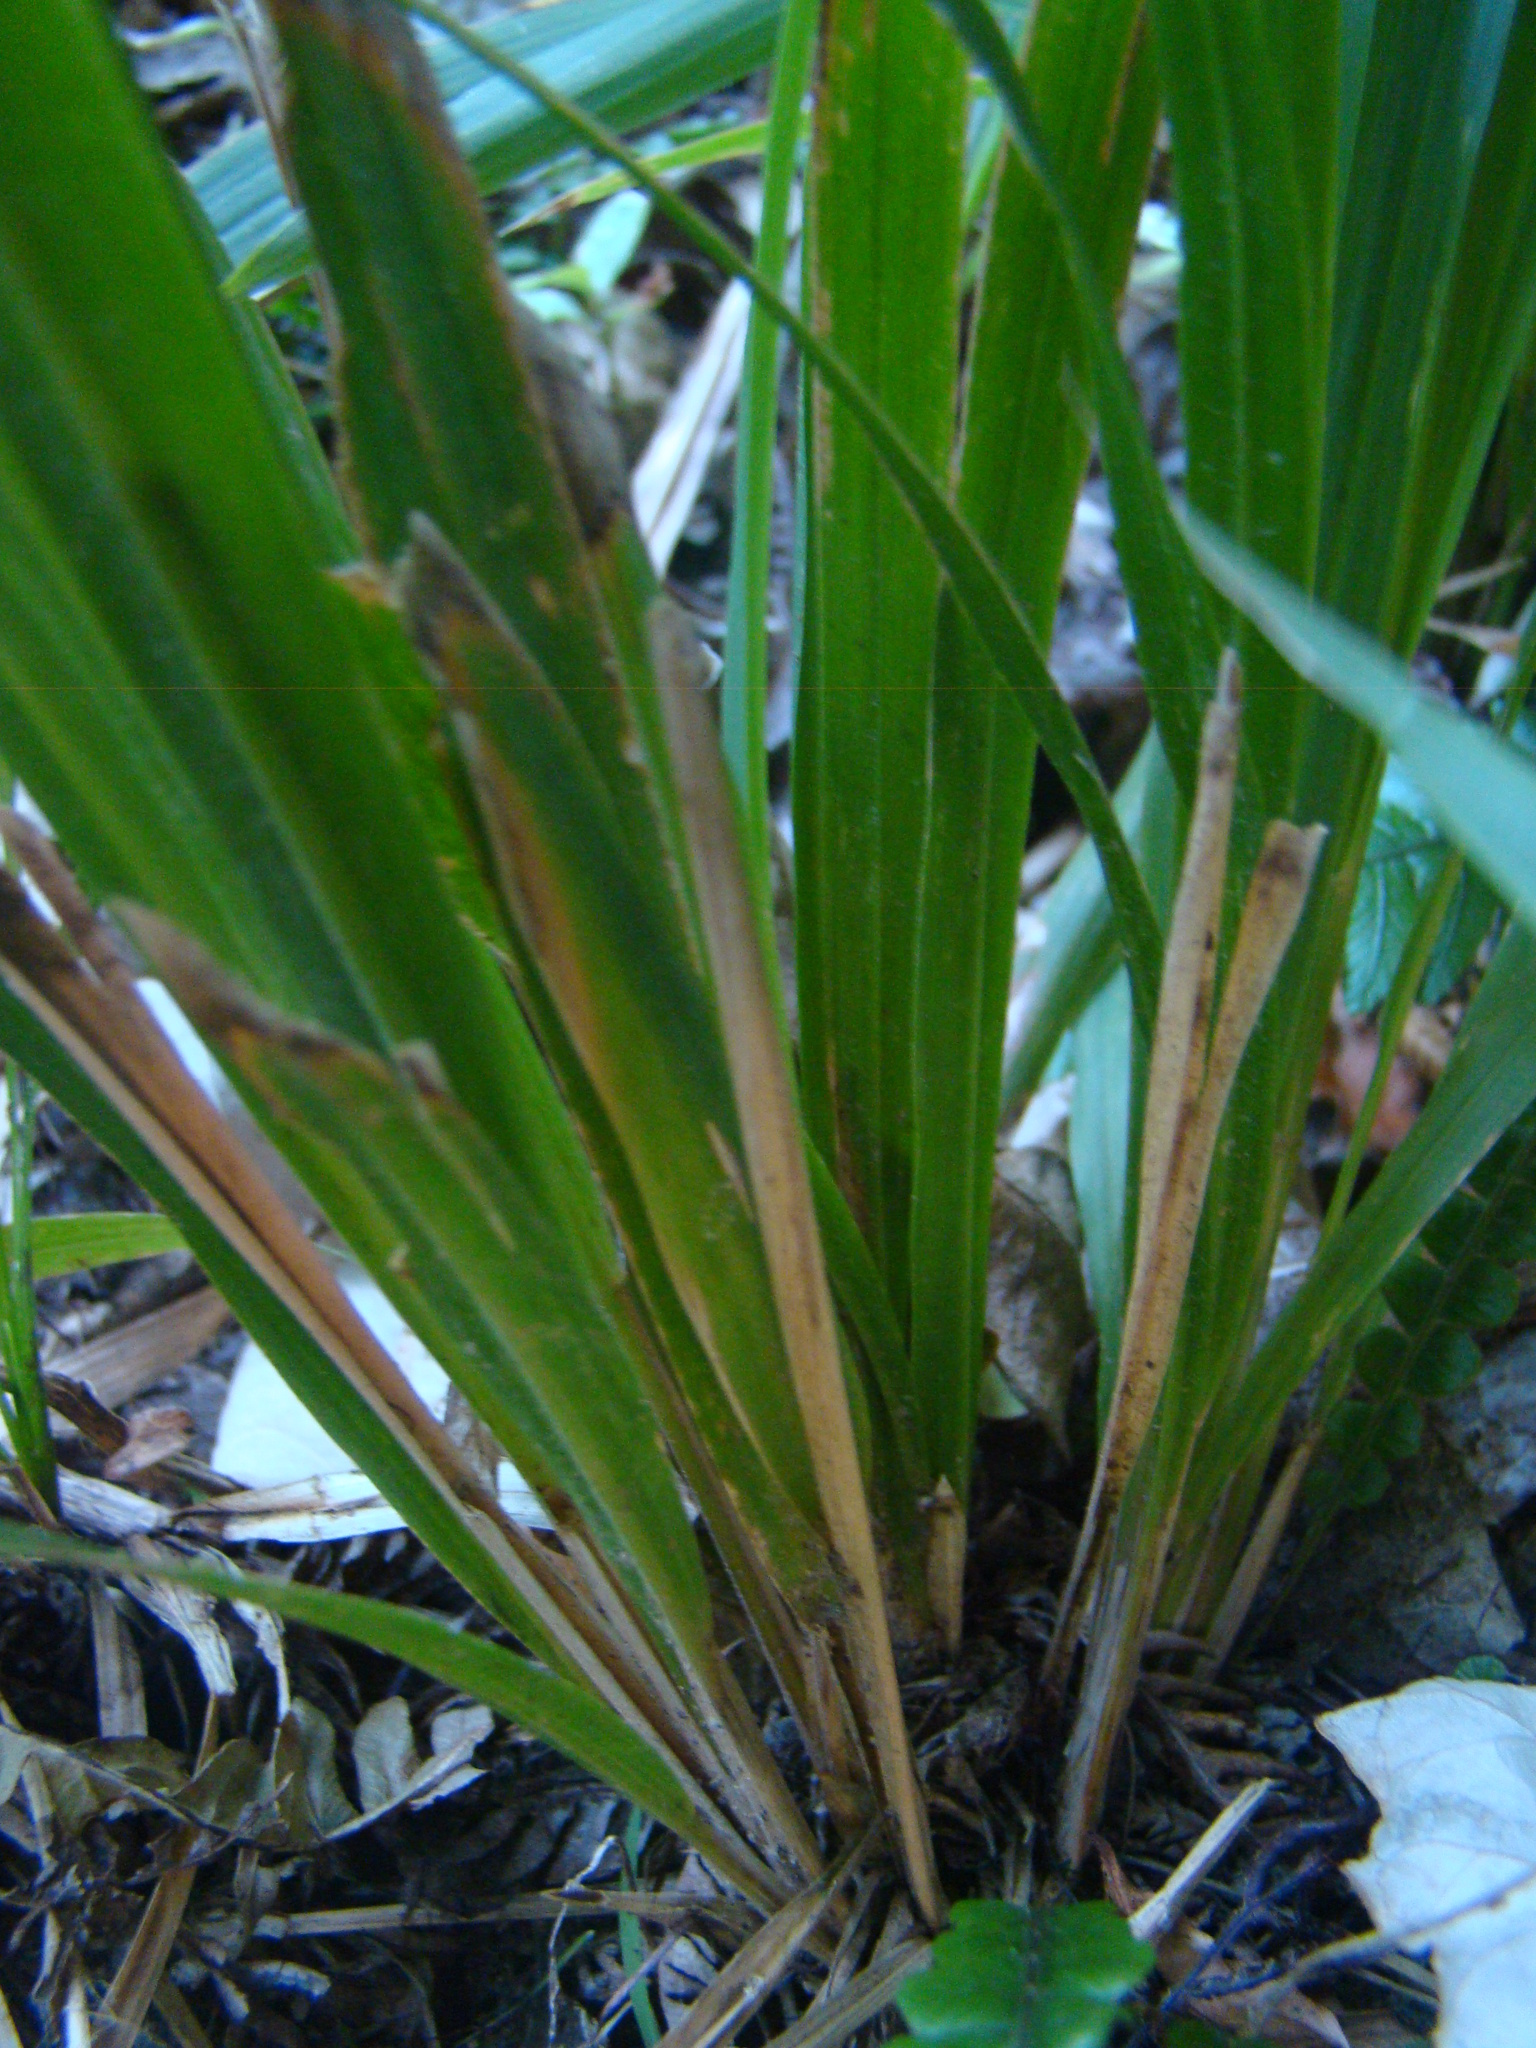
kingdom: Plantae
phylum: Tracheophyta
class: Liliopsida
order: Poales
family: Poaceae
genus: Ehrharta
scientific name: Ehrharta diplax
